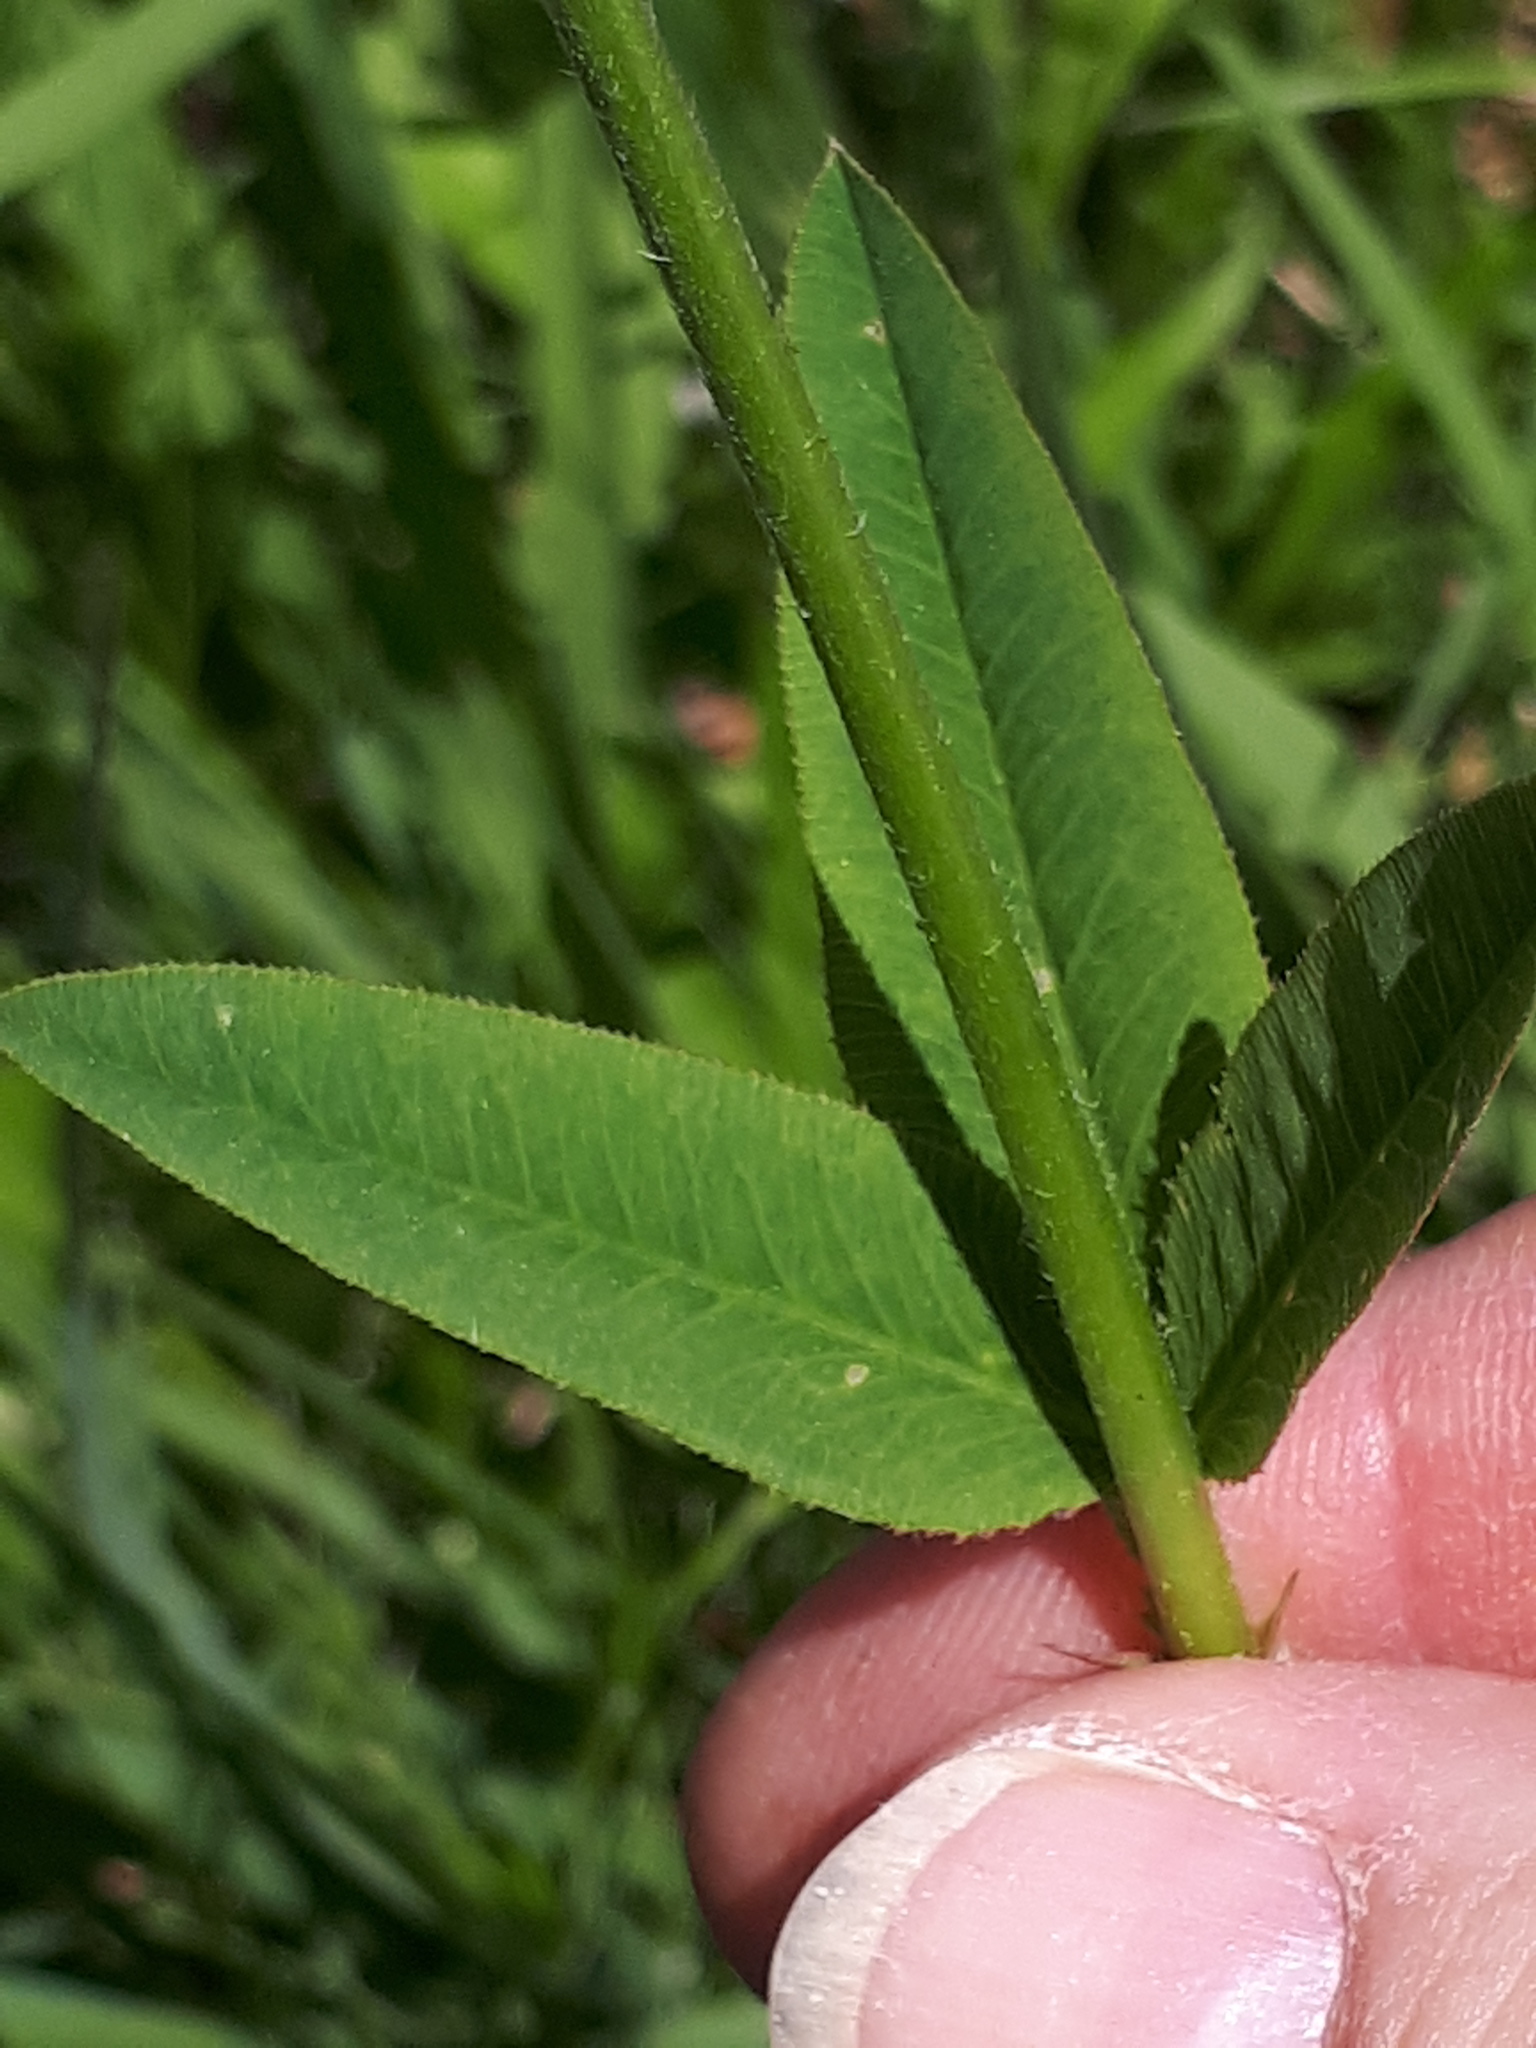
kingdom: Plantae
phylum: Tracheophyta
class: Magnoliopsida
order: Fabales
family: Fabaceae
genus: Trifolium
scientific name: Trifolium montanum
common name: Mountain clover
